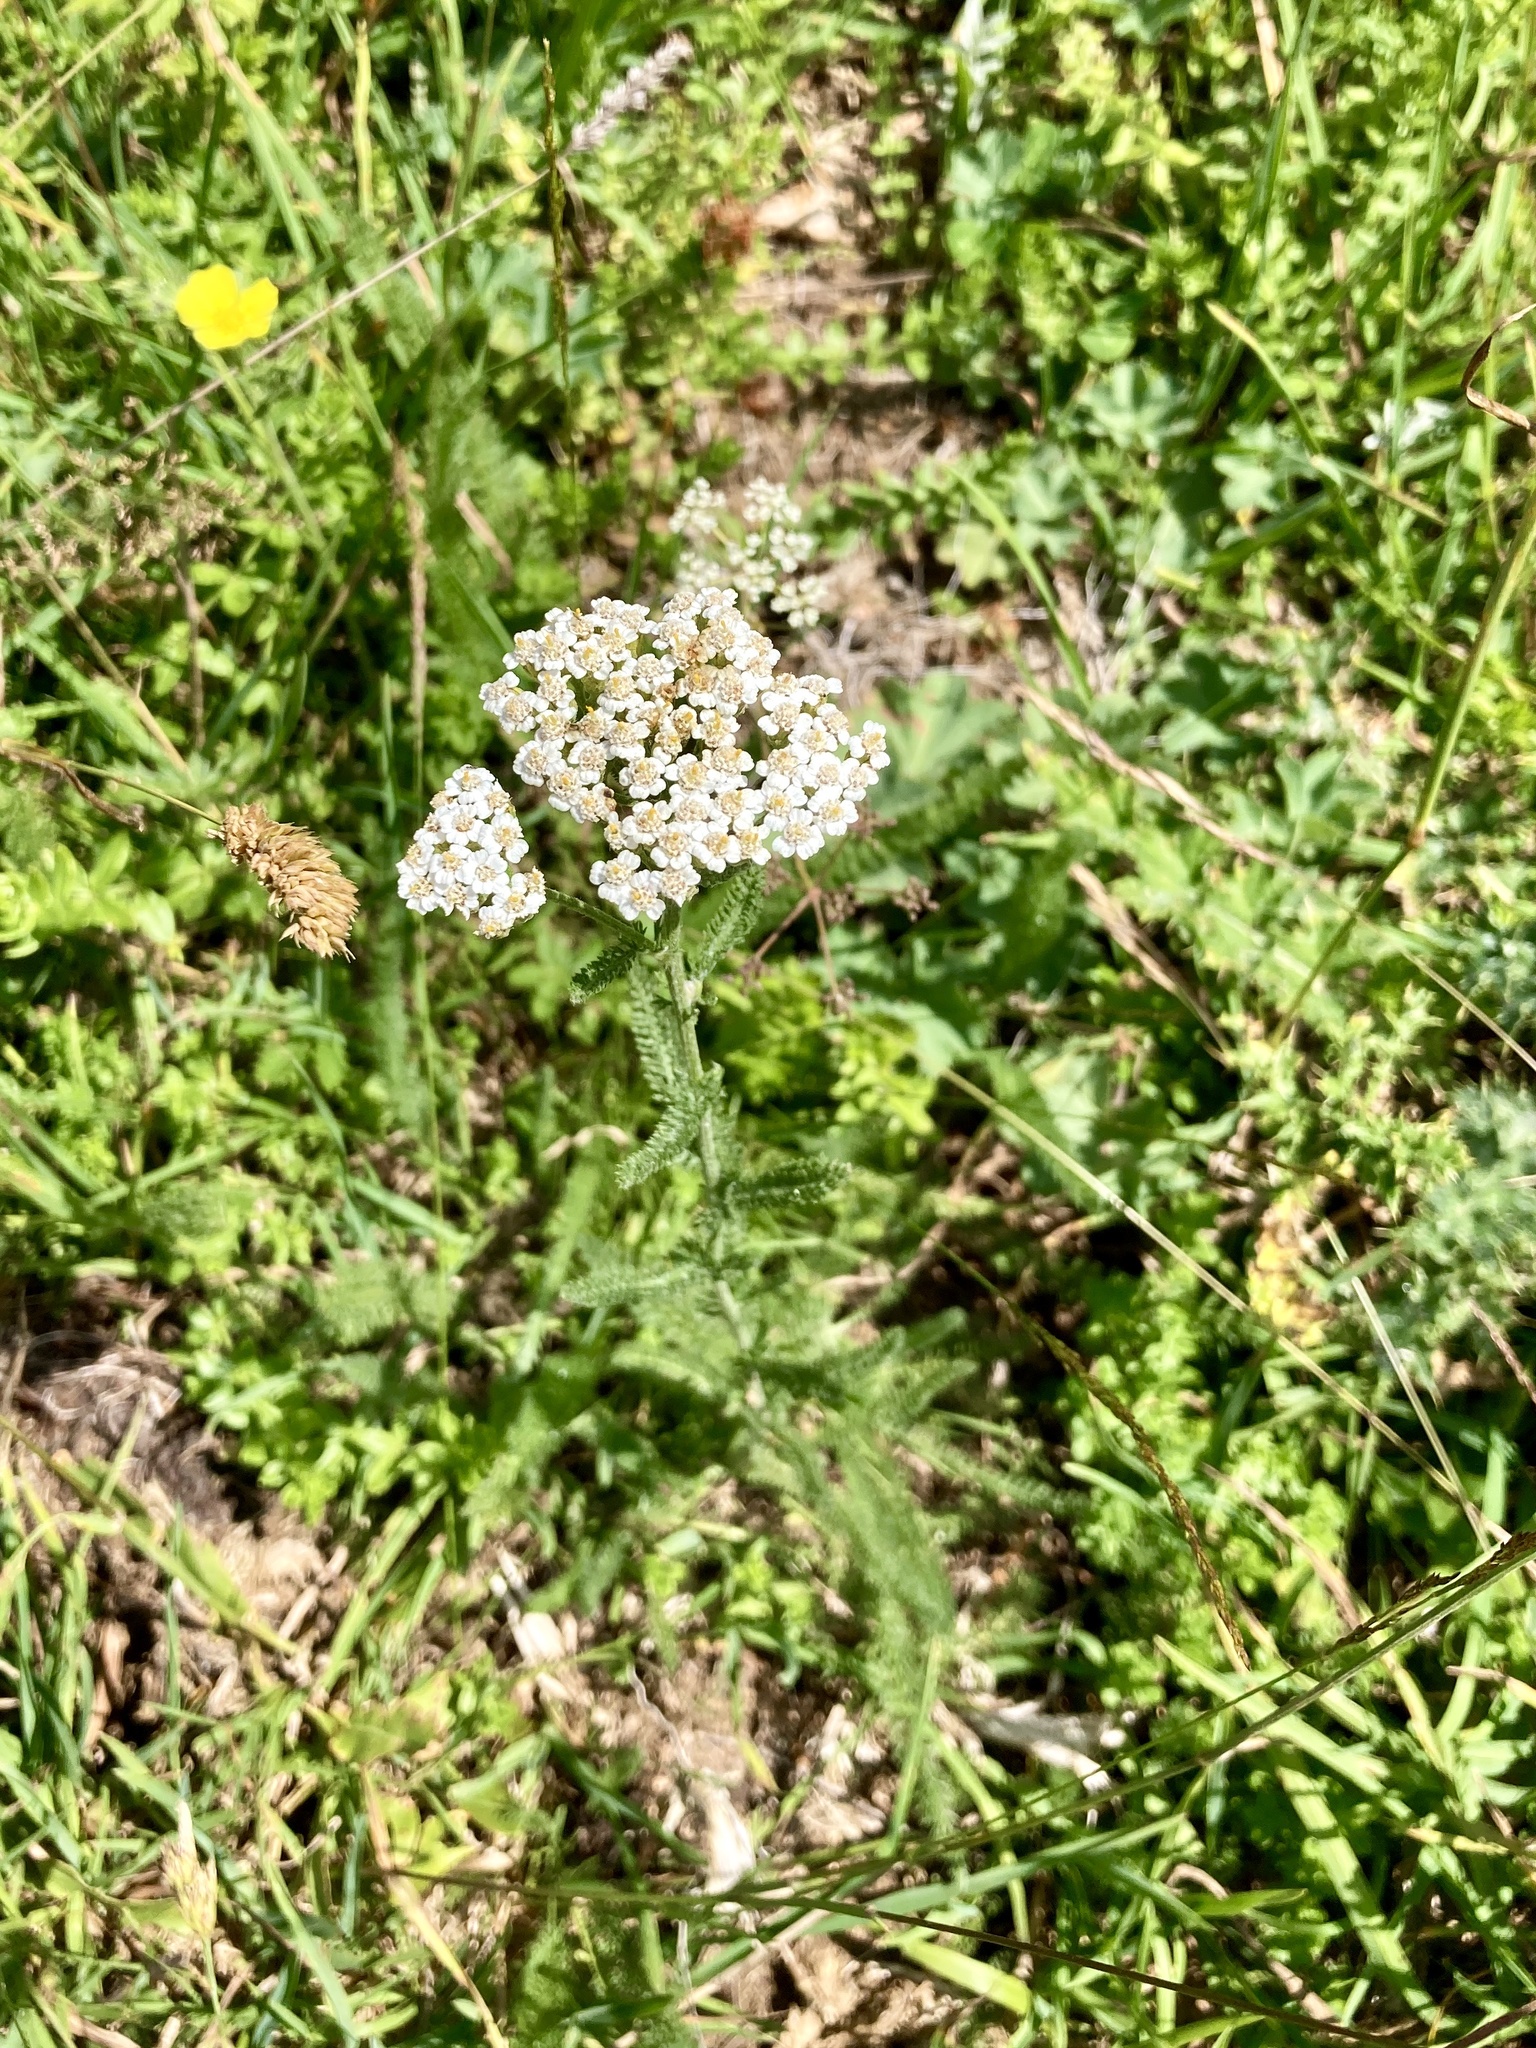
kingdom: Plantae
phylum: Tracheophyta
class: Magnoliopsida
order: Asterales
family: Asteraceae
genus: Achillea
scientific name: Achillea millefolium
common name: Yarrow
